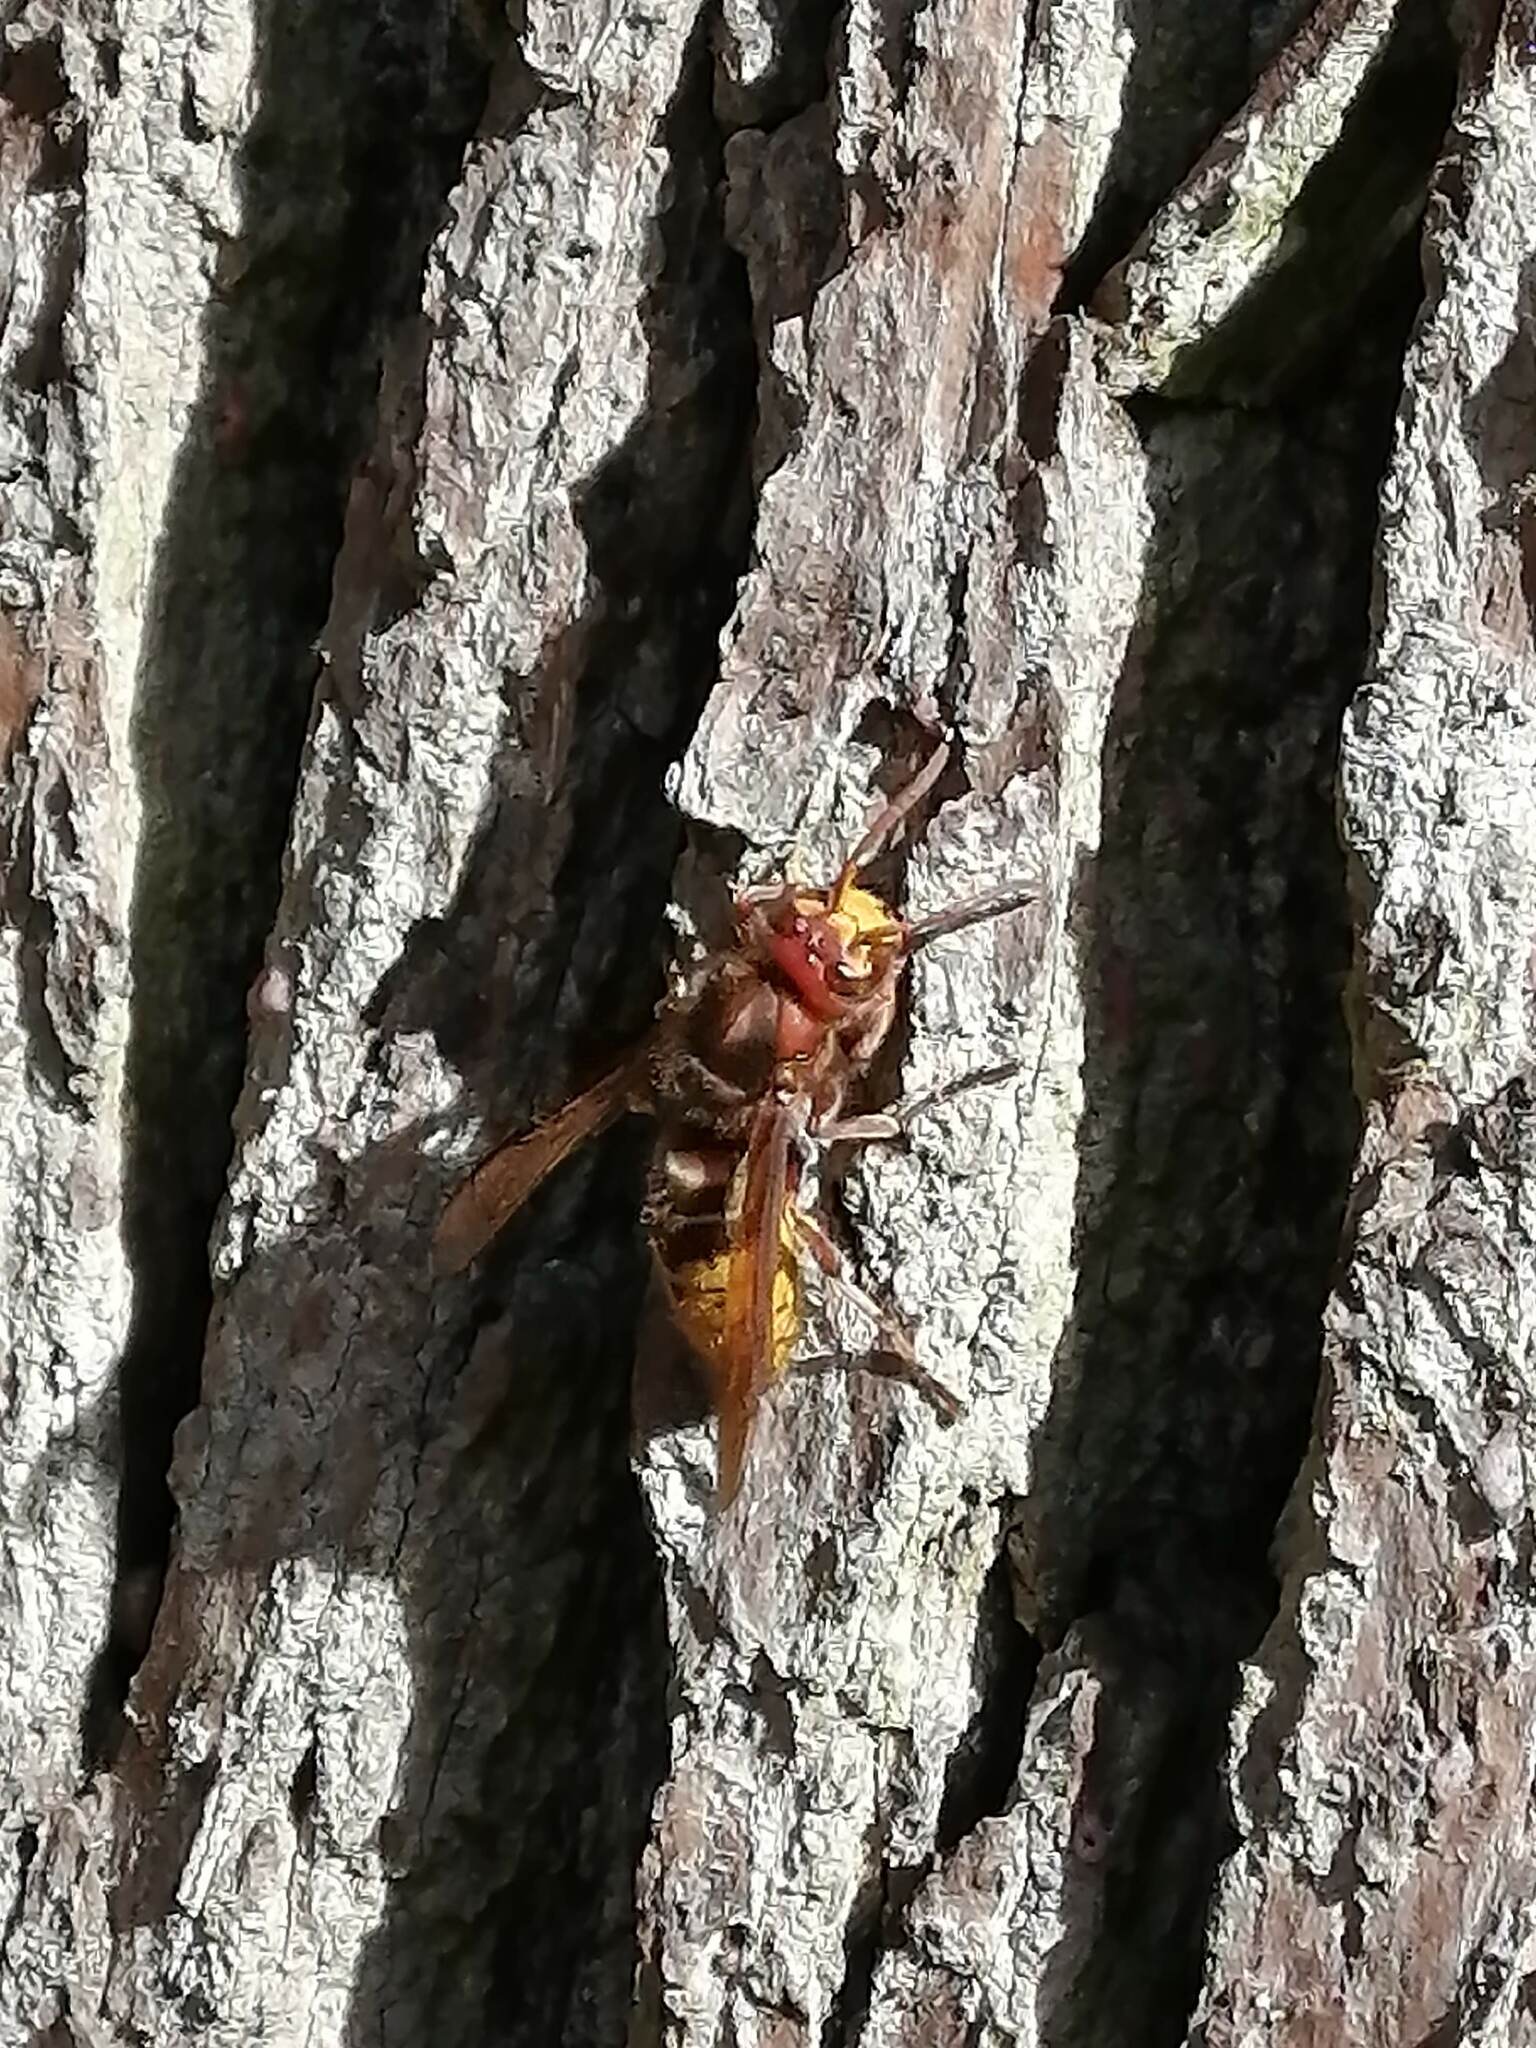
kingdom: Animalia
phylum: Arthropoda
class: Insecta
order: Hymenoptera
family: Vespidae
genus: Vespa
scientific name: Vespa crabro
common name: Hornet
